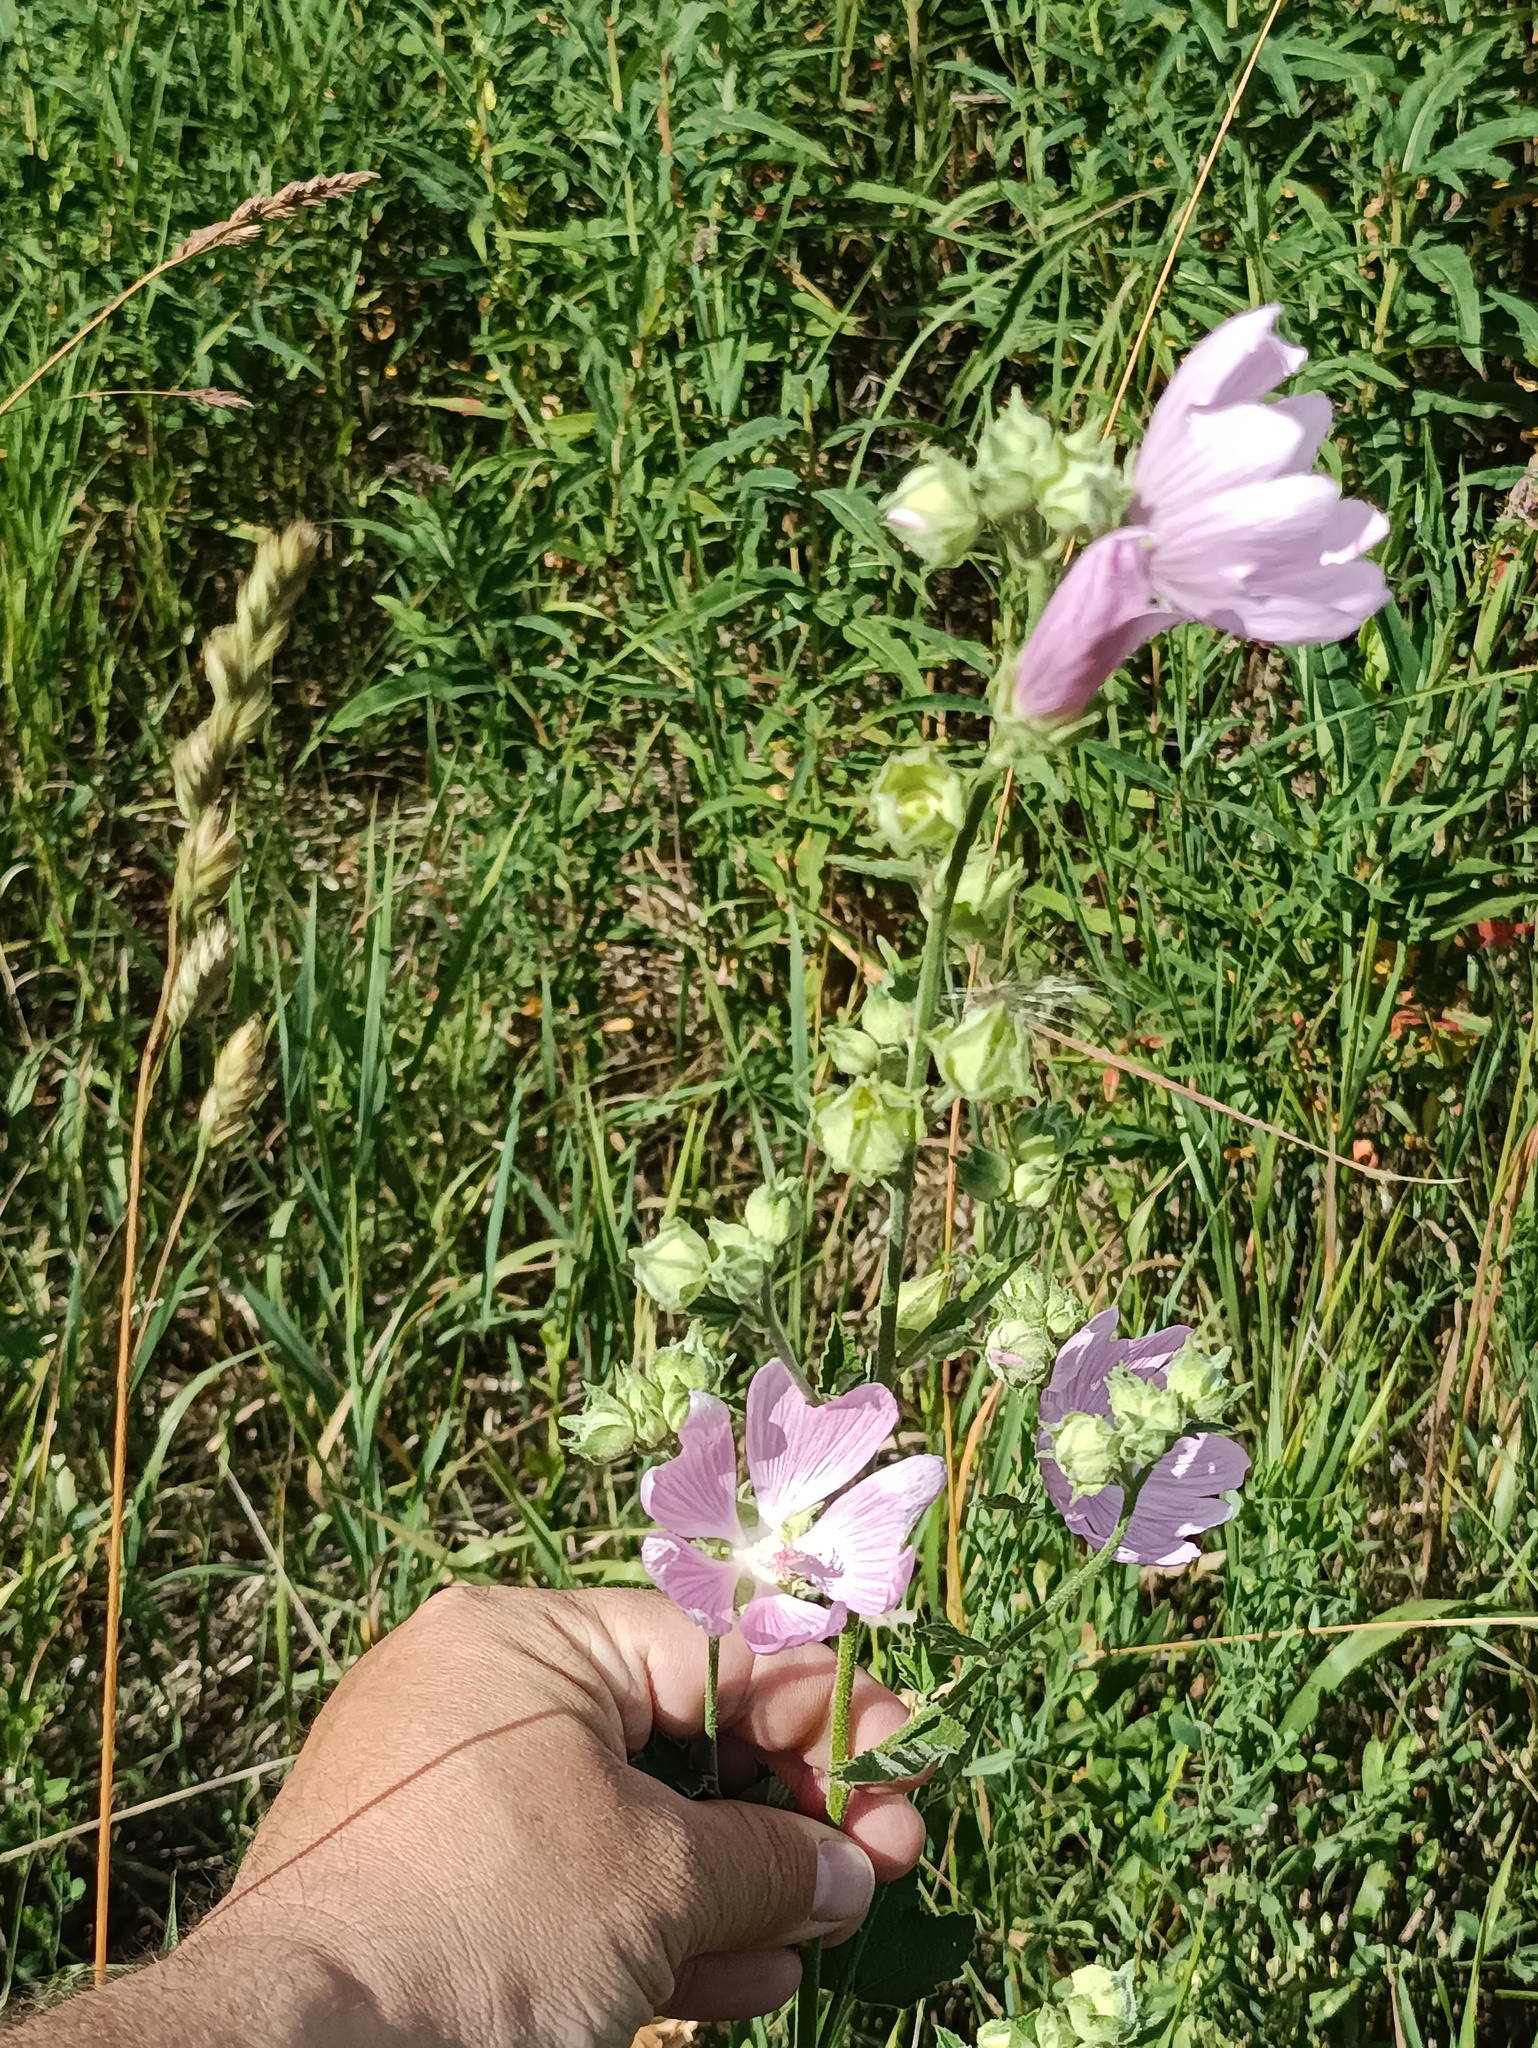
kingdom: Plantae
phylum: Tracheophyta
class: Magnoliopsida
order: Malvales
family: Malvaceae
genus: Malva
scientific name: Malva thuringiaca
